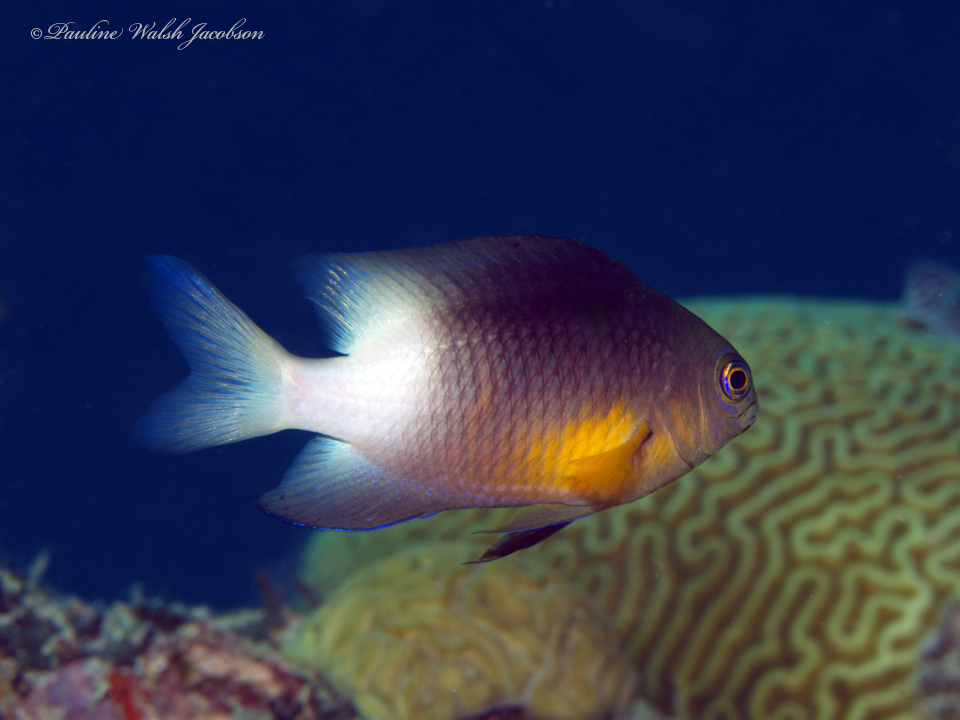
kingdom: Animalia
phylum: Chordata
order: Perciformes
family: Pomacentridae
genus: Stegastes
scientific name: Stegastes partitus
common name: Bicolor damselfish
